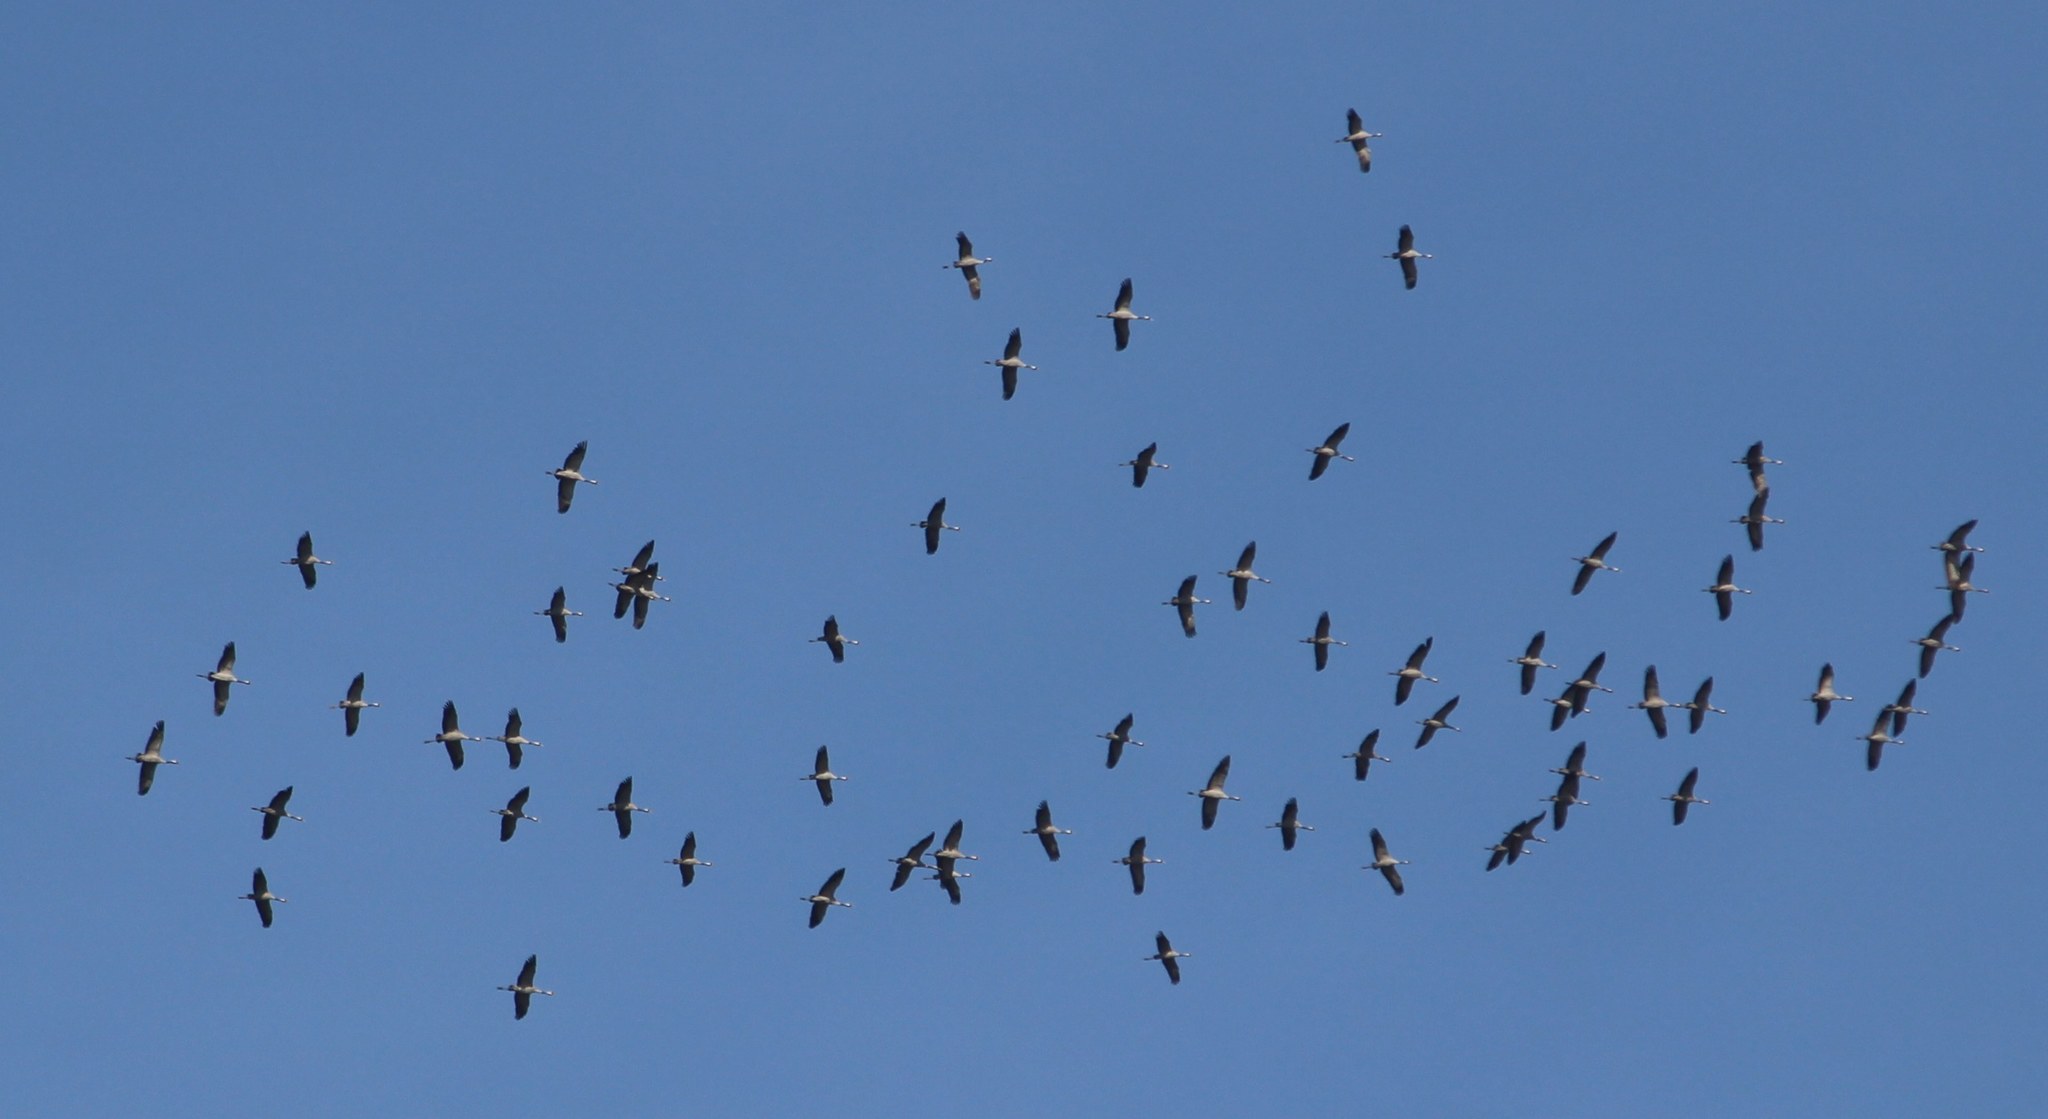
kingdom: Animalia
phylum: Chordata
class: Aves
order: Gruiformes
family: Gruidae
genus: Grus
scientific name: Grus grus
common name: Common crane
